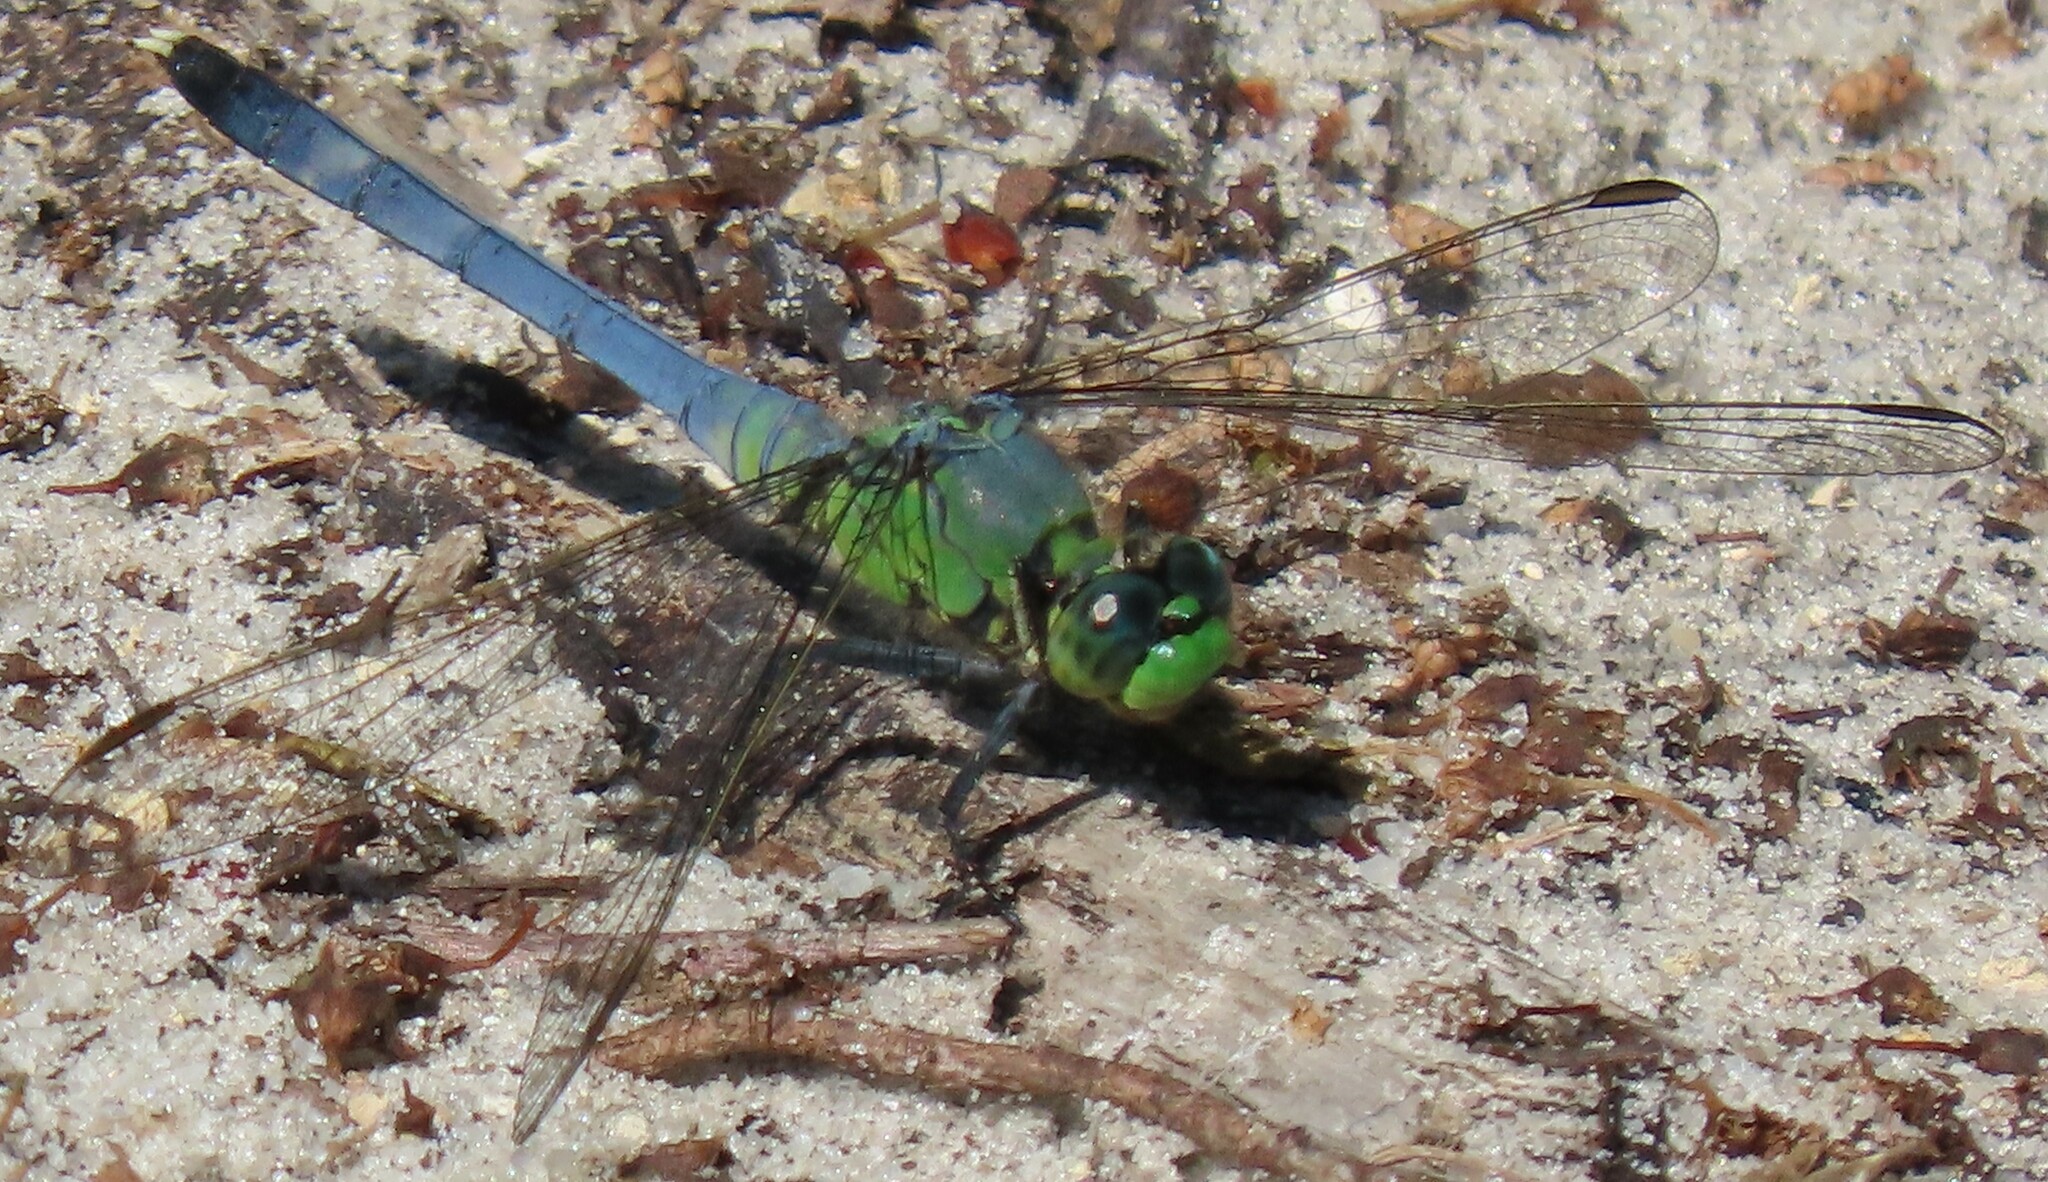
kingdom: Animalia
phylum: Arthropoda
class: Insecta
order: Odonata
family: Libellulidae
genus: Erythemis
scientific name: Erythemis simplicicollis
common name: Eastern pondhawk
